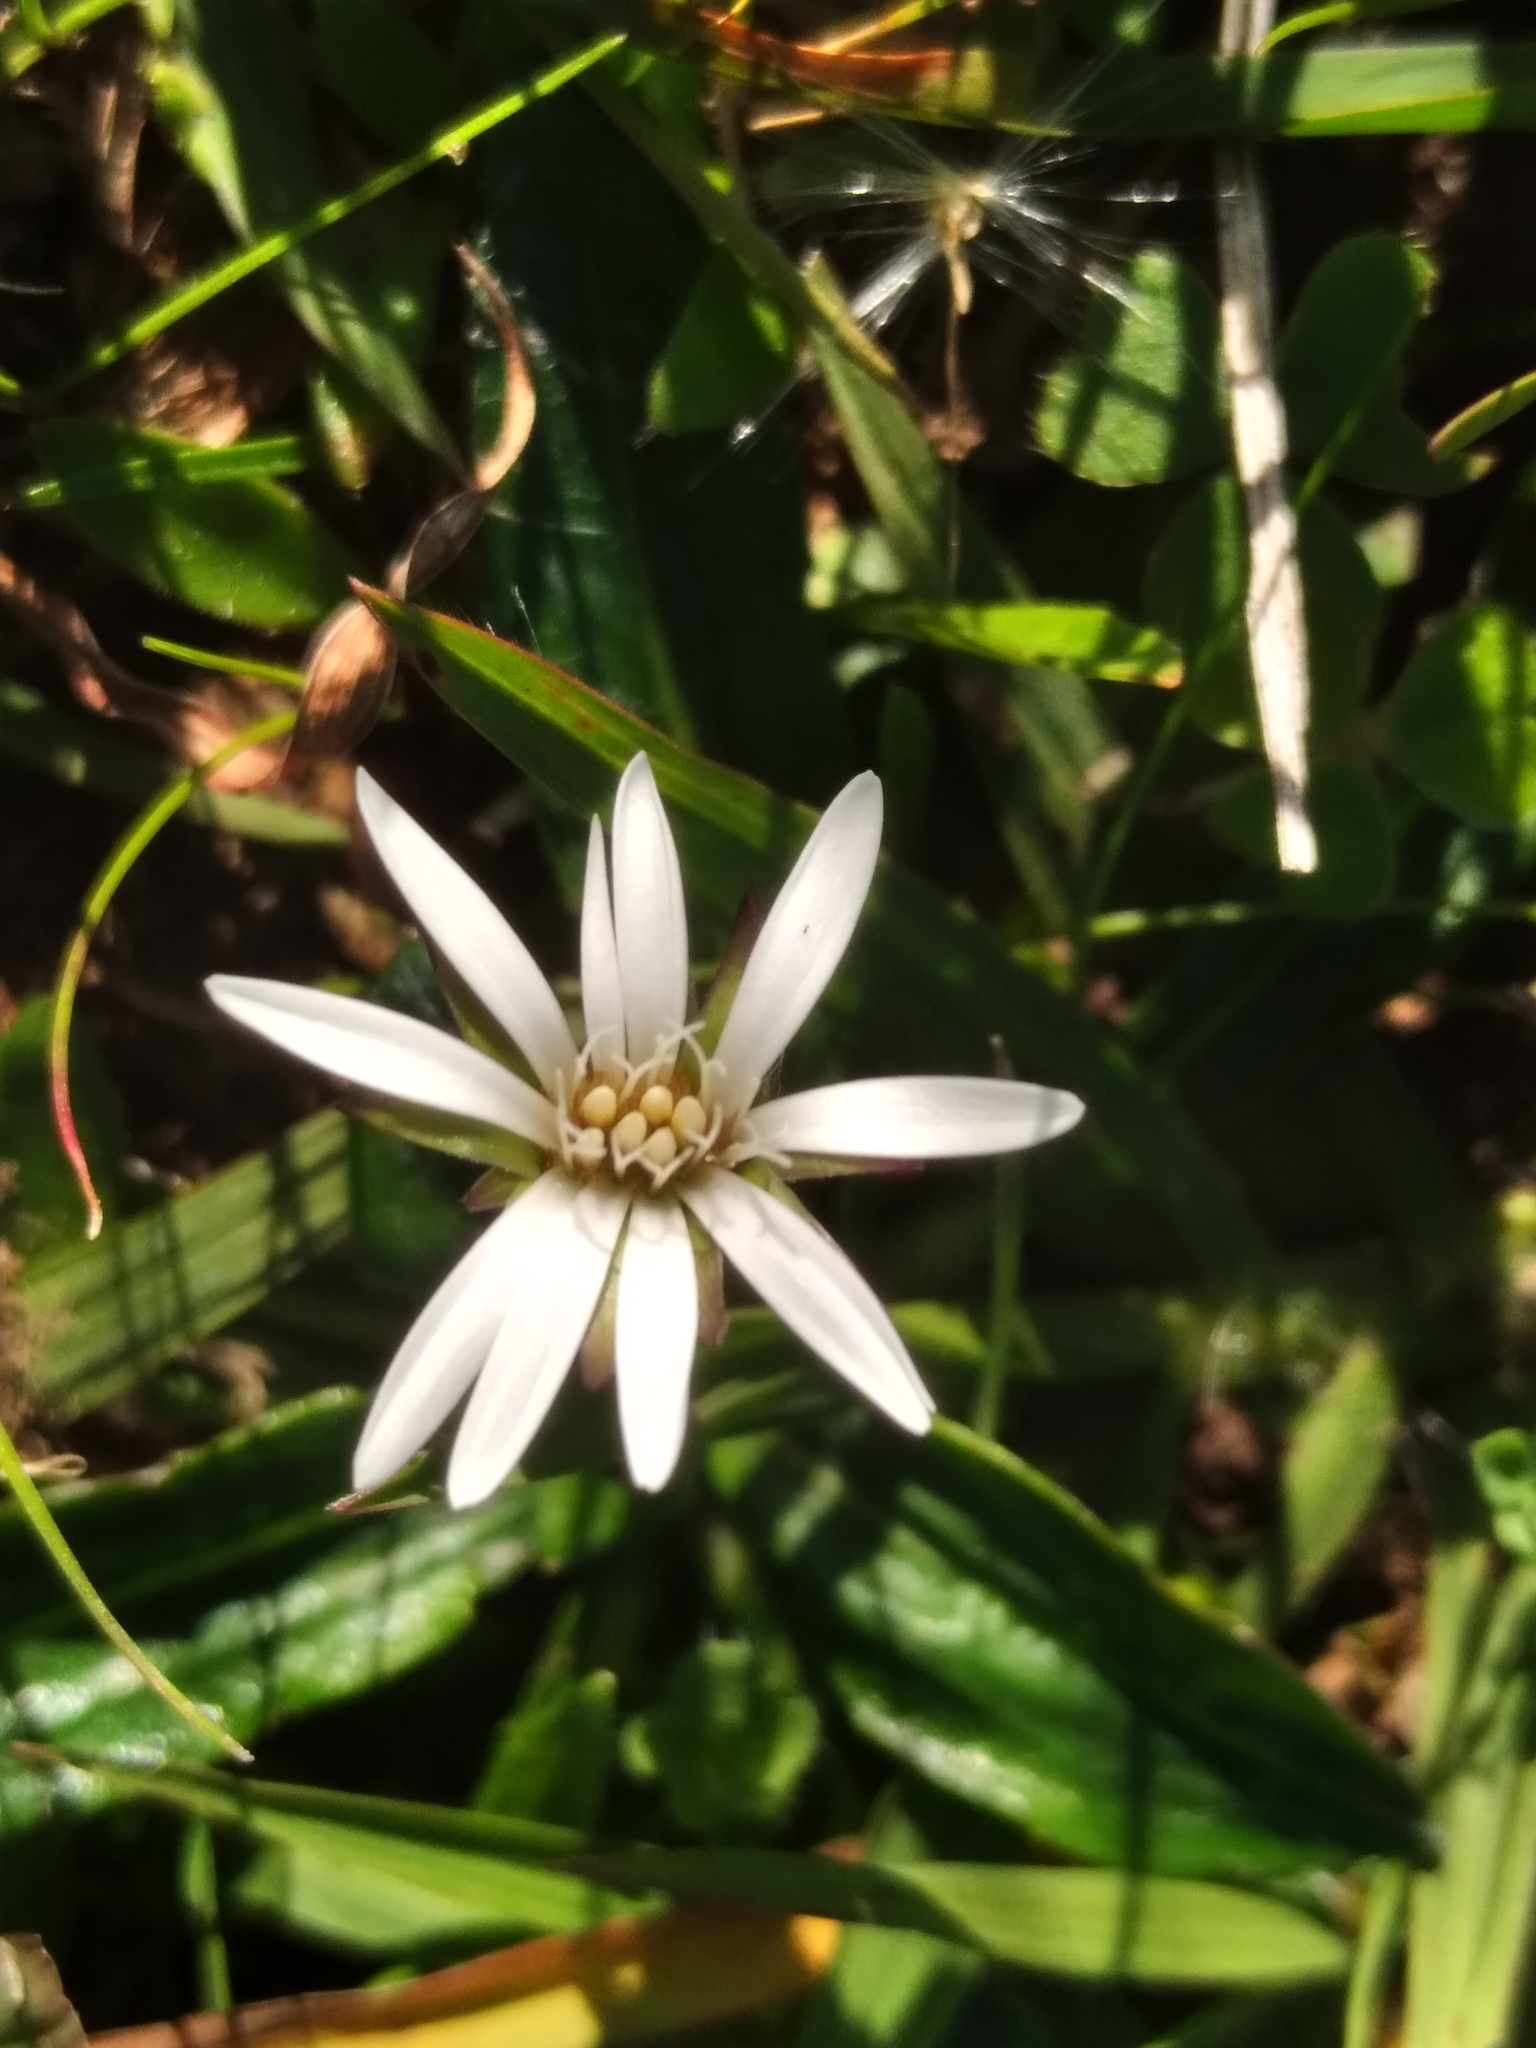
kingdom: Plantae
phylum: Tracheophyta
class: Magnoliopsida
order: Asterales
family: Asteraceae
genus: Chaptalia
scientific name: Chaptalia piloselloides
